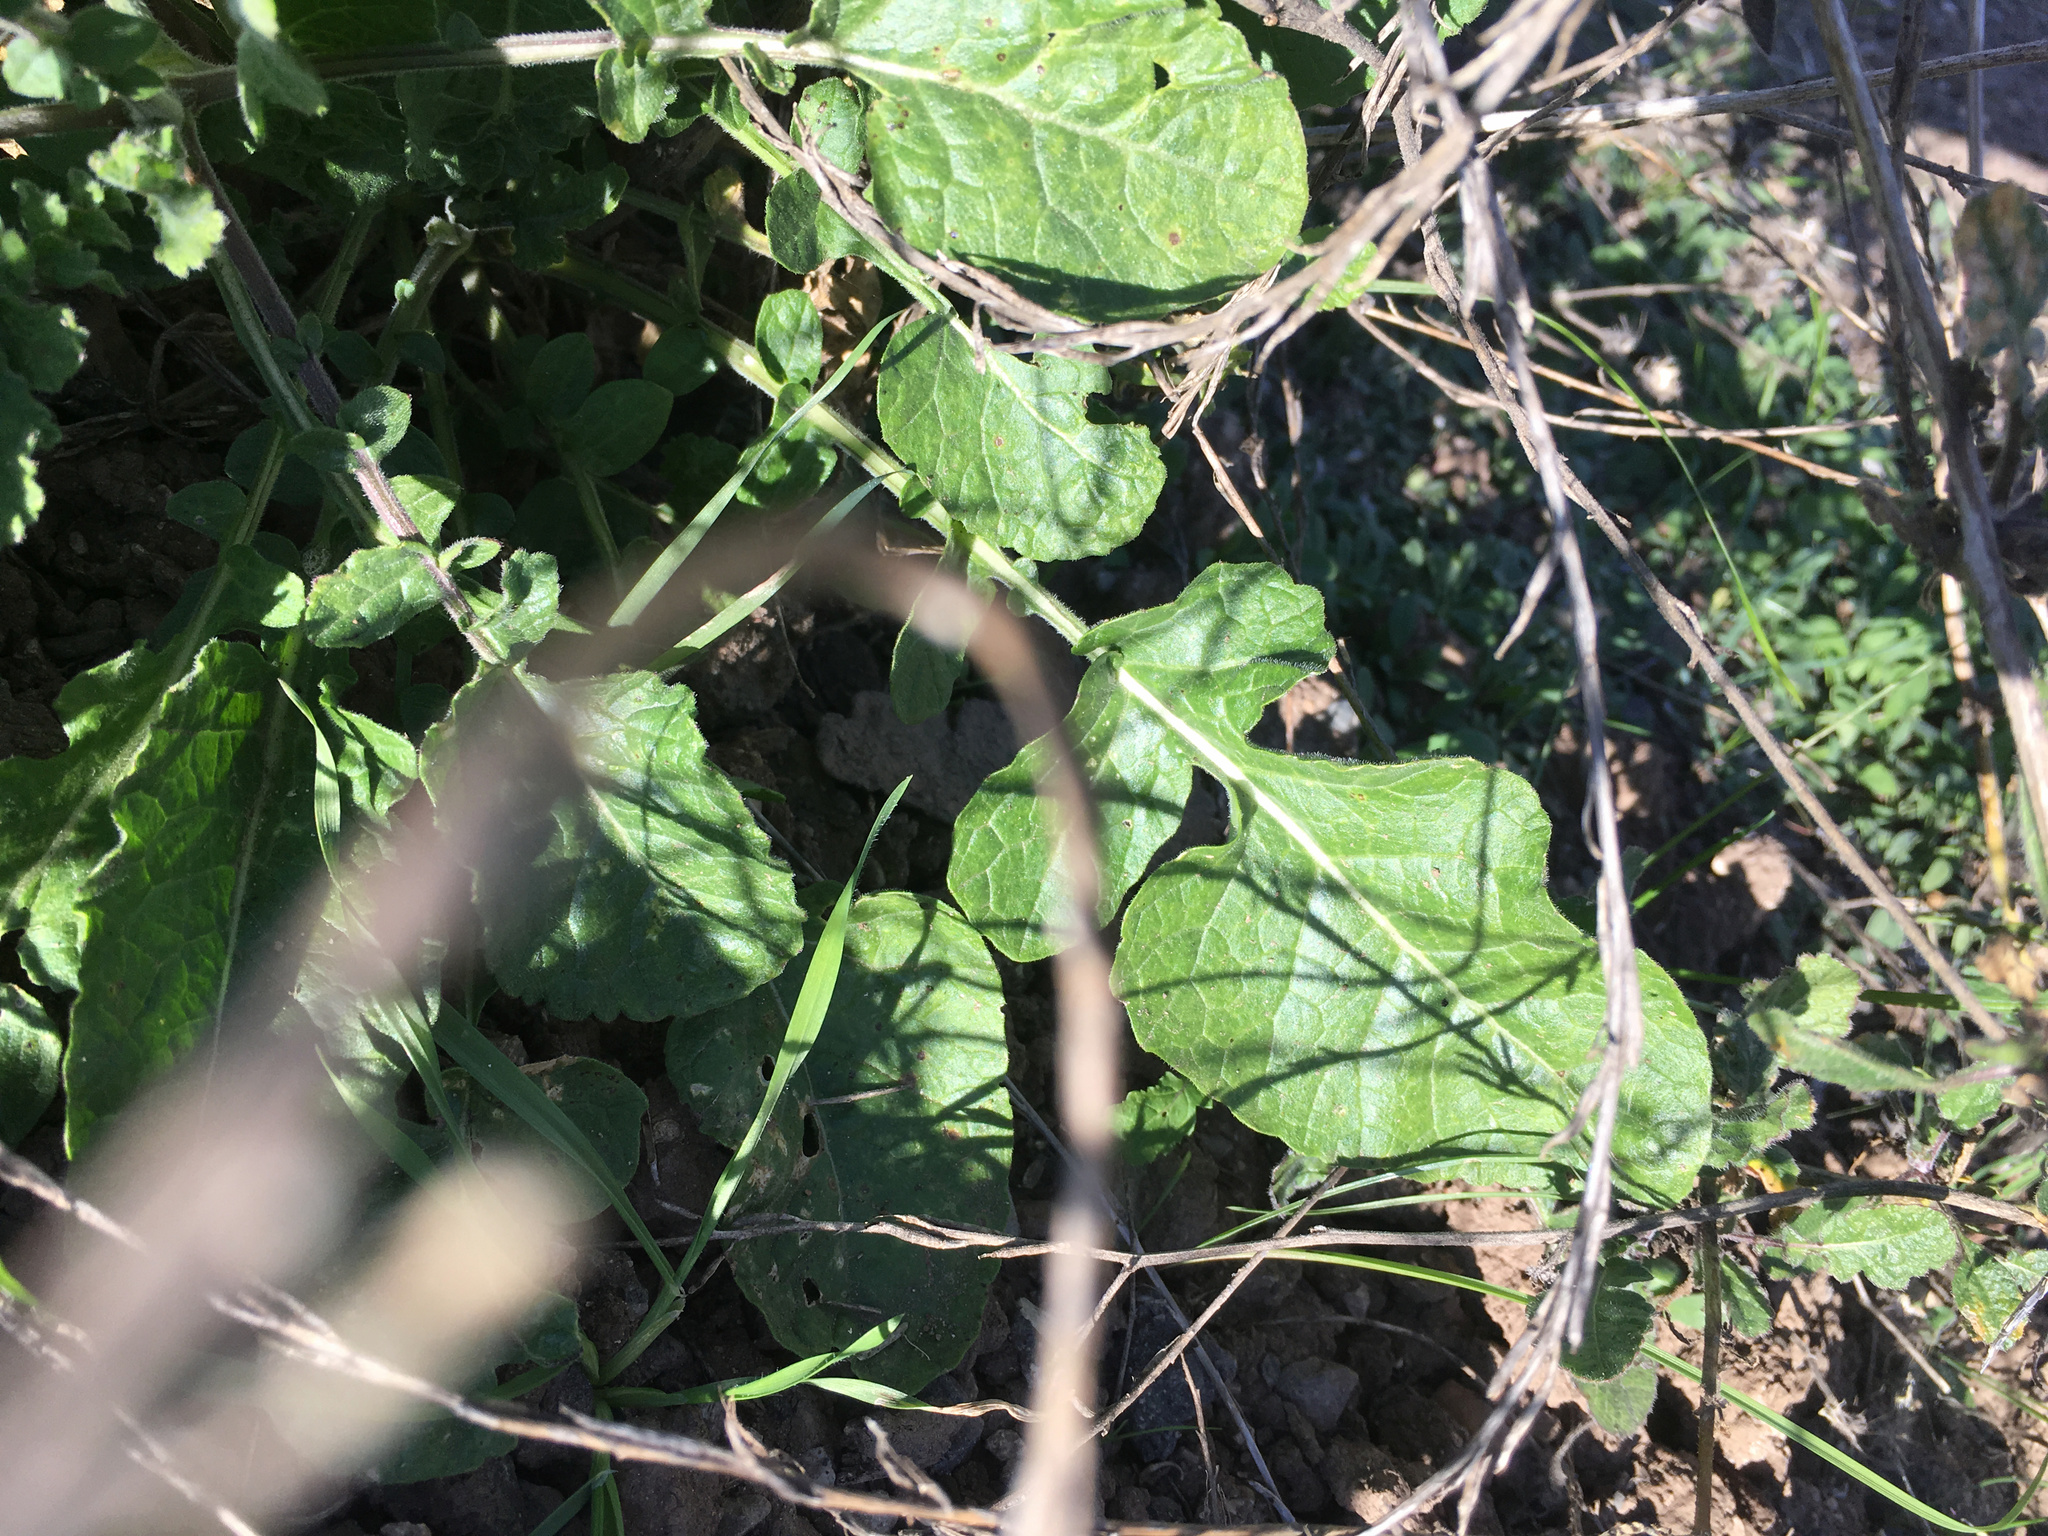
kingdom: Plantae
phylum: Tracheophyta
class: Magnoliopsida
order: Brassicales
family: Brassicaceae
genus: Hirschfeldia
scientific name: Hirschfeldia incana
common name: Hoary mustard
